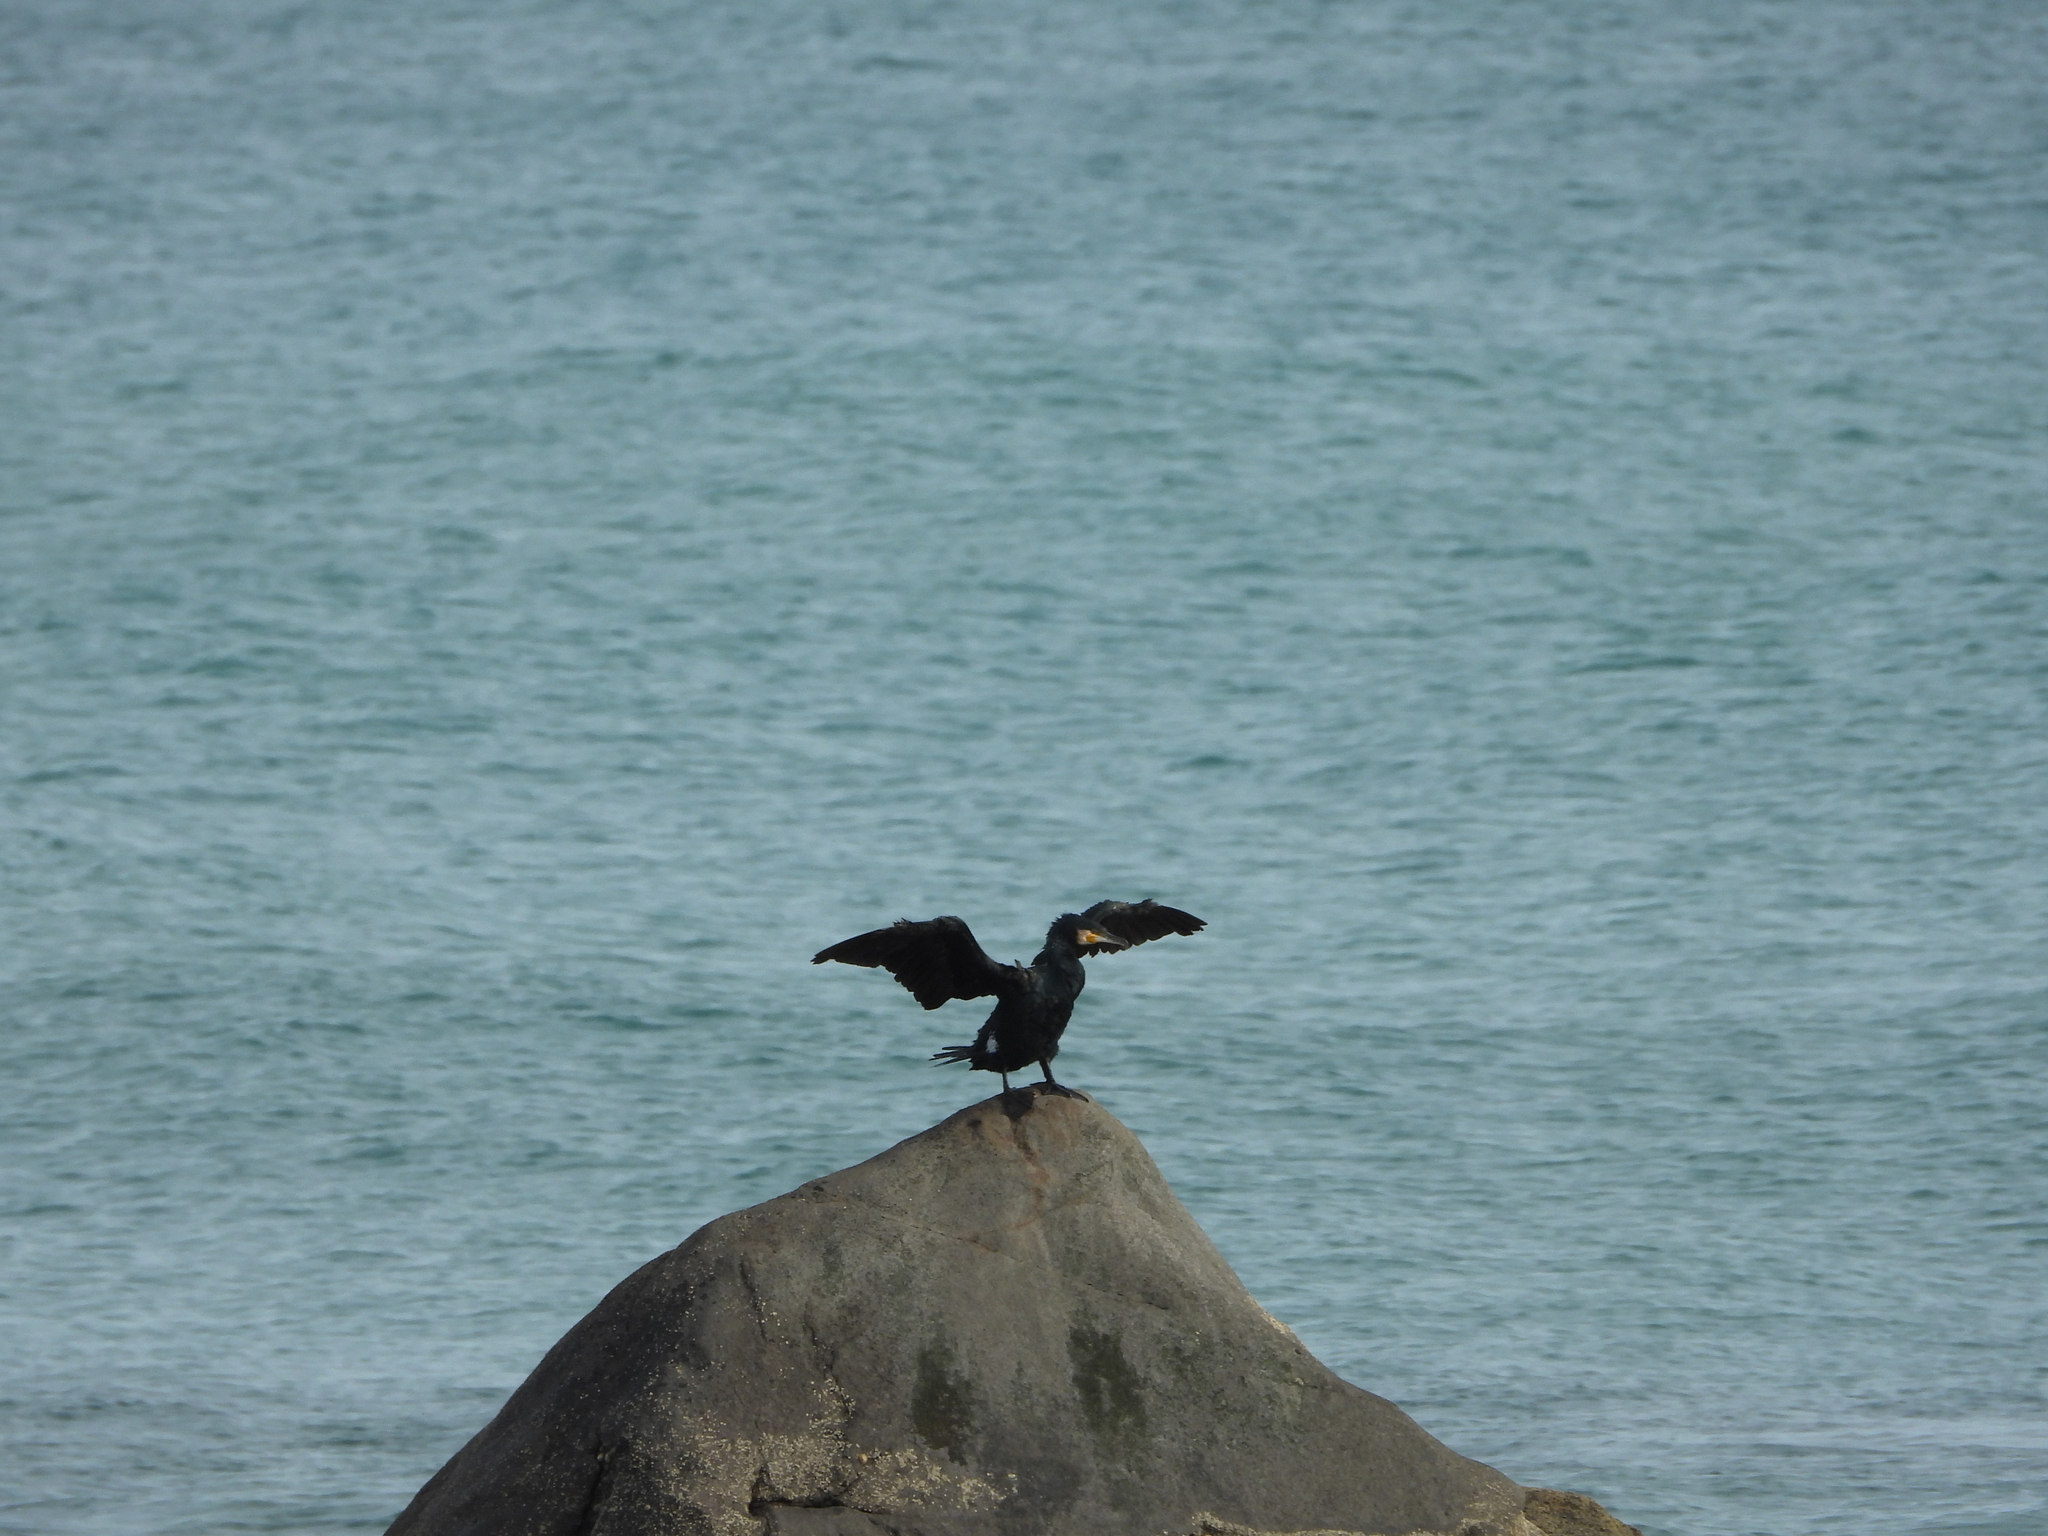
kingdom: Animalia
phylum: Chordata
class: Aves
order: Suliformes
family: Phalacrocoracidae
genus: Phalacrocorax
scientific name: Phalacrocorax carbo
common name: Great cormorant
